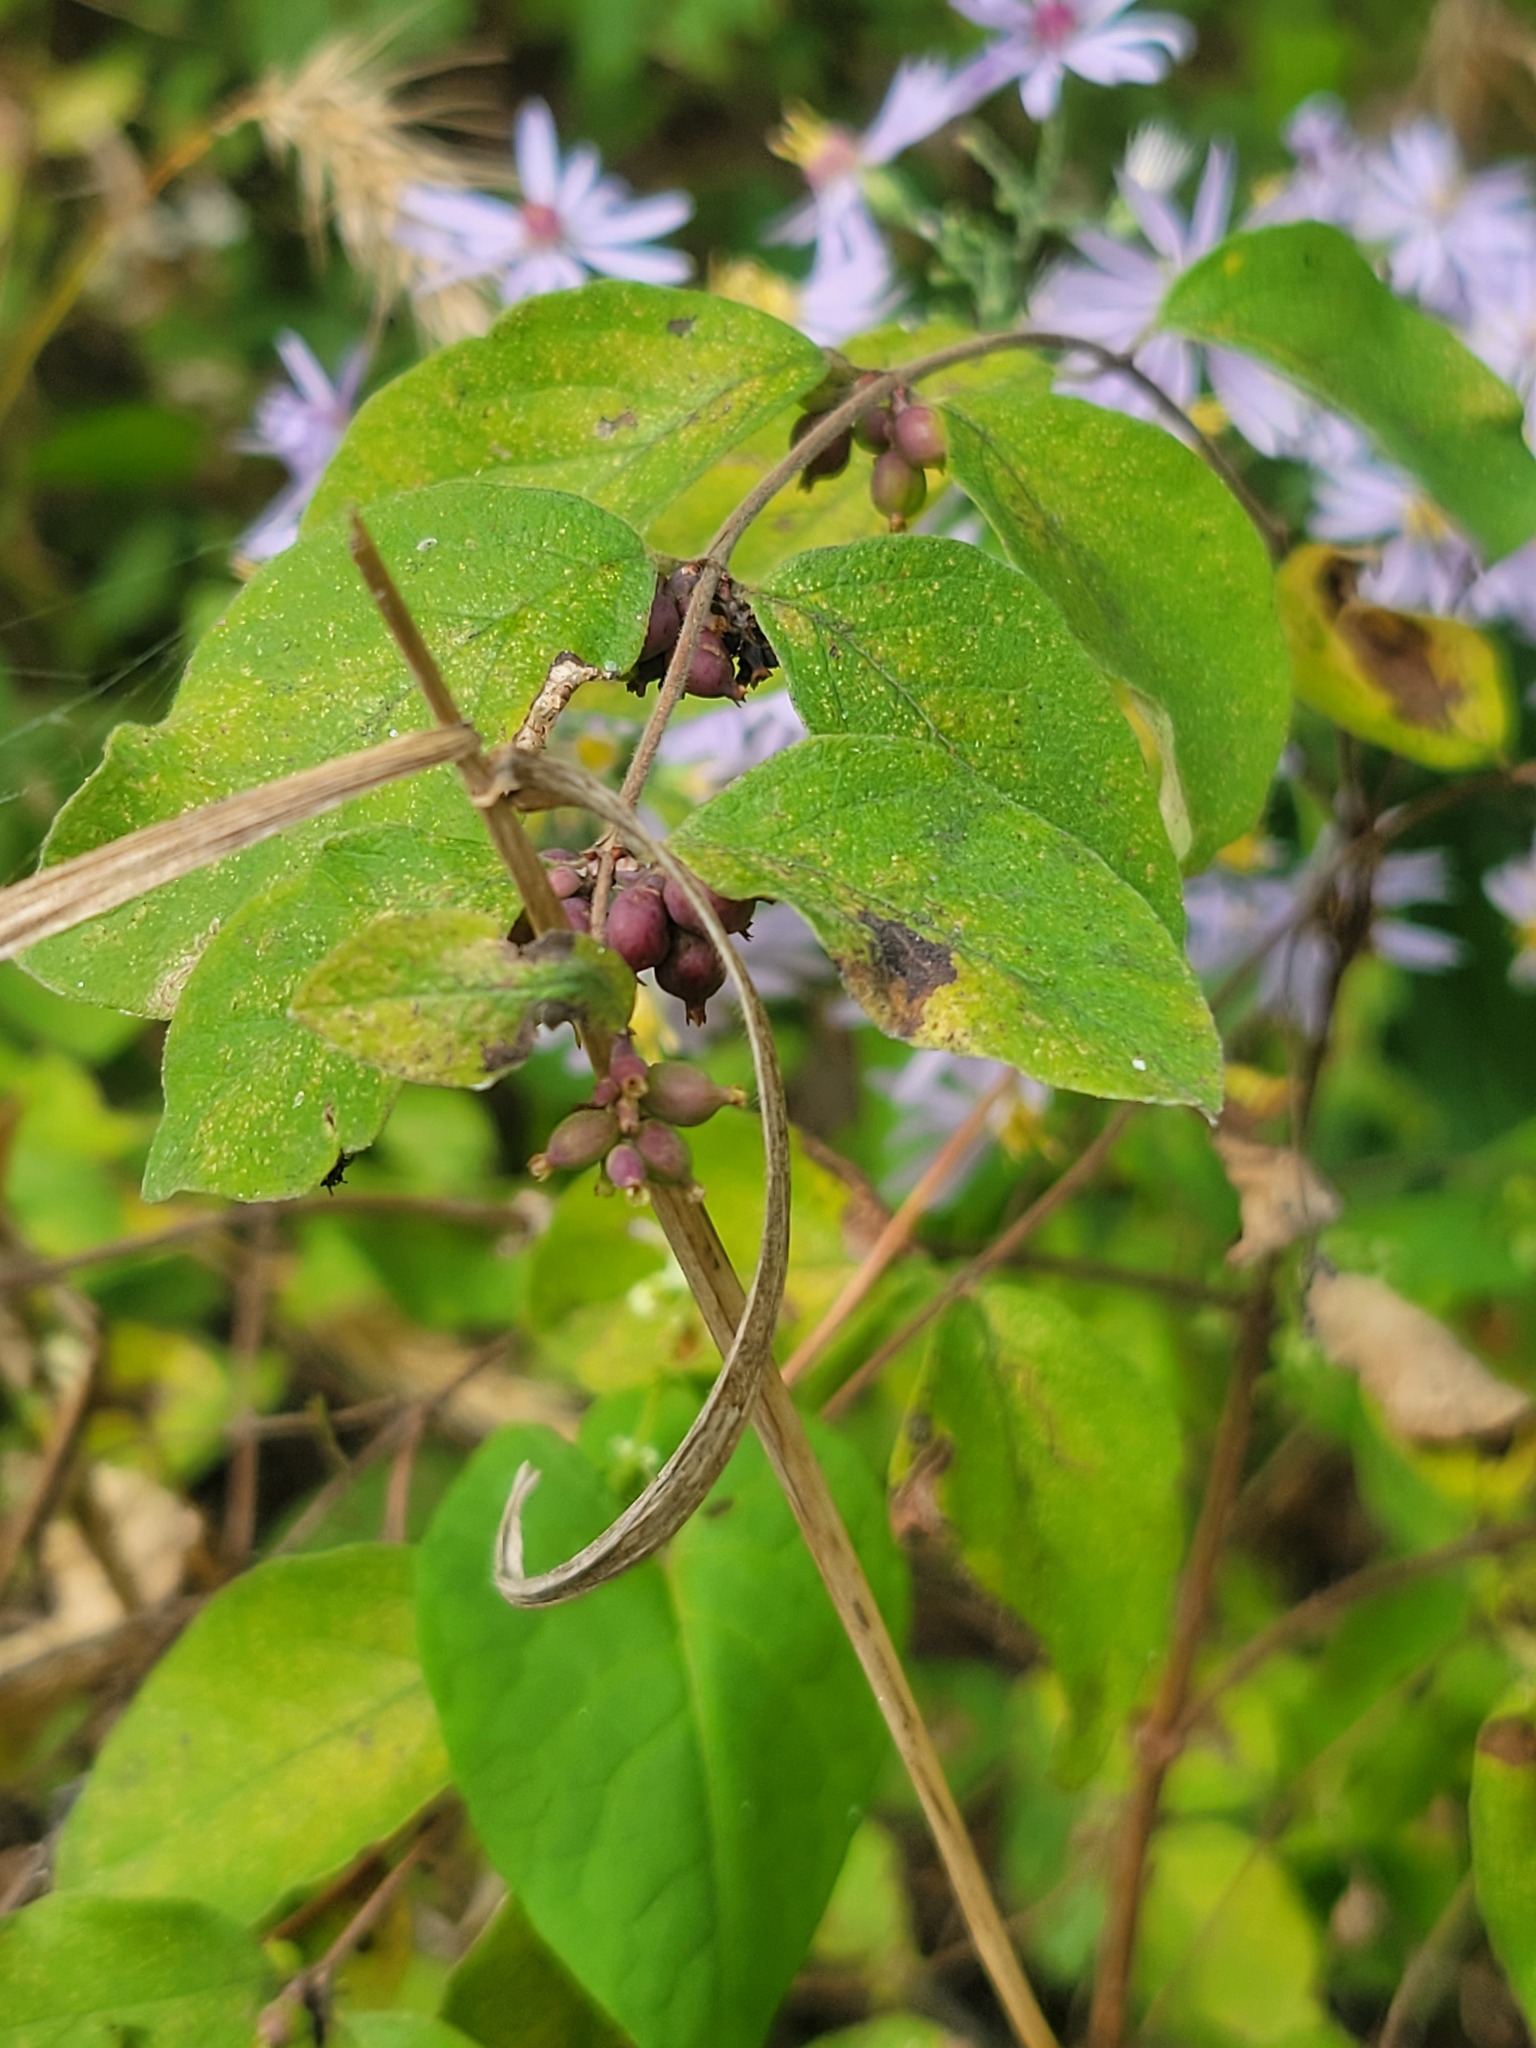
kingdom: Plantae
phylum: Tracheophyta
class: Magnoliopsida
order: Dipsacales
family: Caprifoliaceae
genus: Symphoricarpos
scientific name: Symphoricarpos orbiculatus
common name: Coralberry
